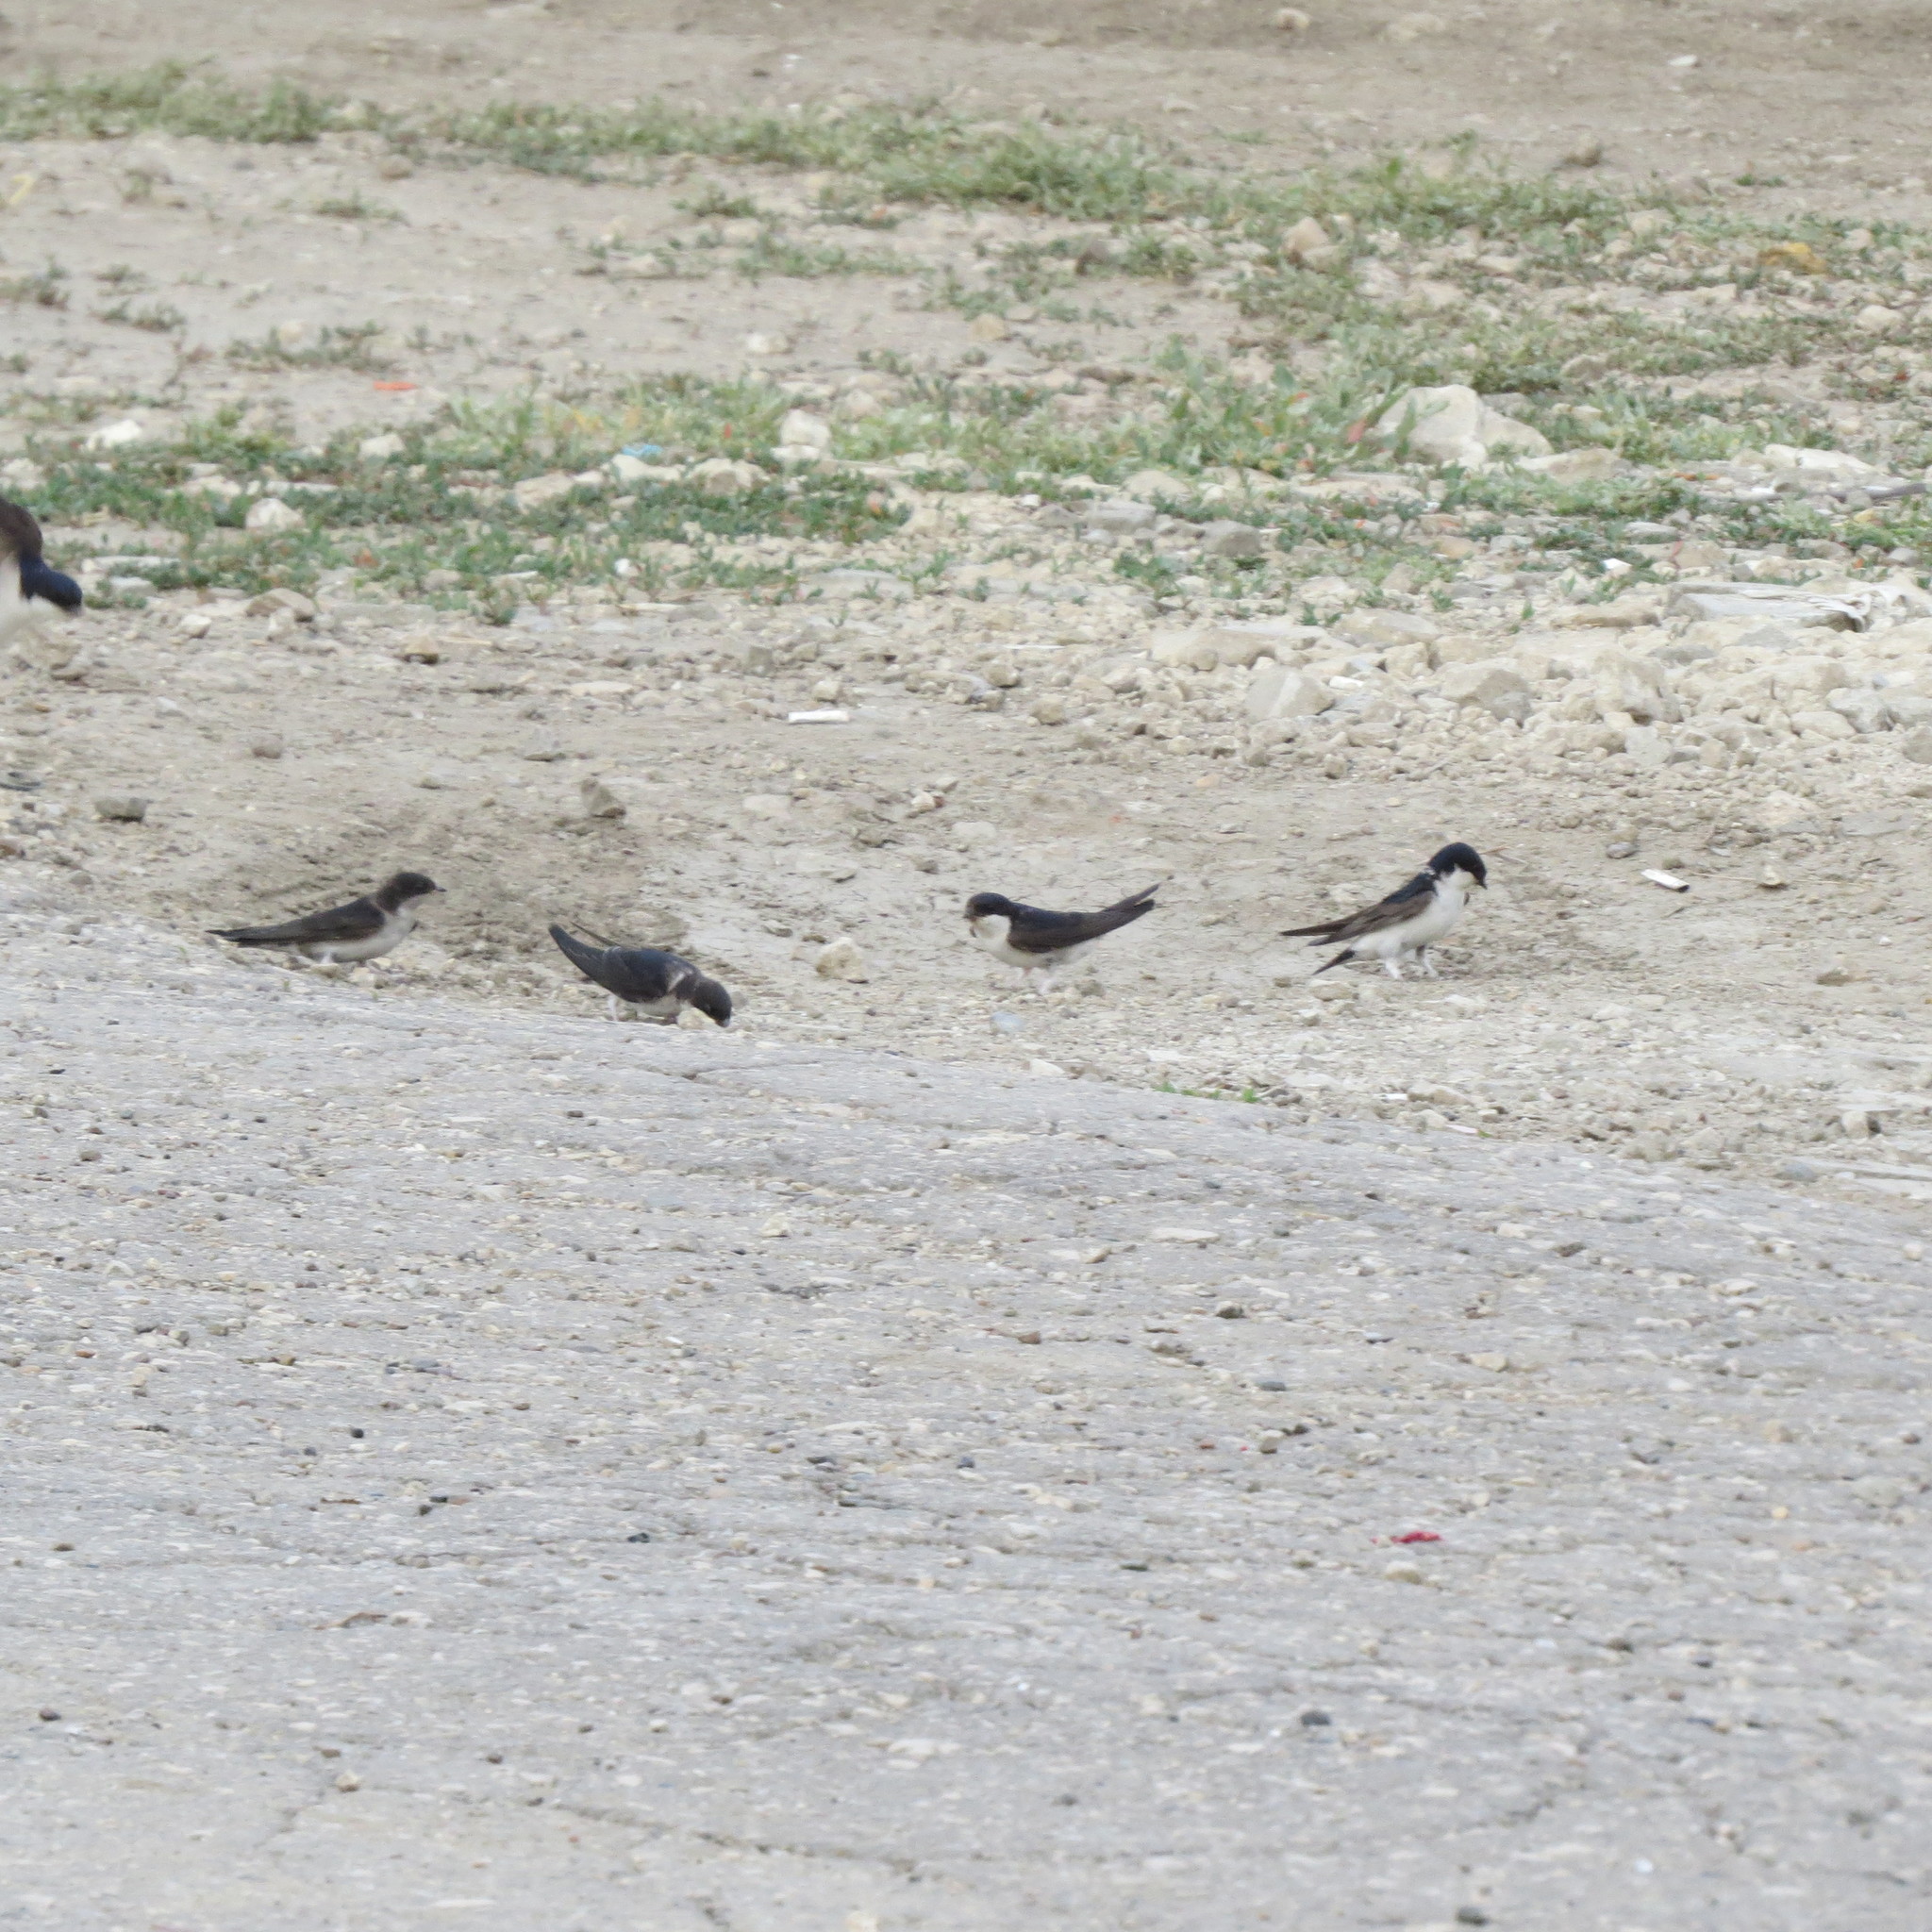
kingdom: Animalia
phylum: Chordata
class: Aves
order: Passeriformes
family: Hirundinidae
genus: Delichon
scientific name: Delichon urbicum
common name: Common house martin
